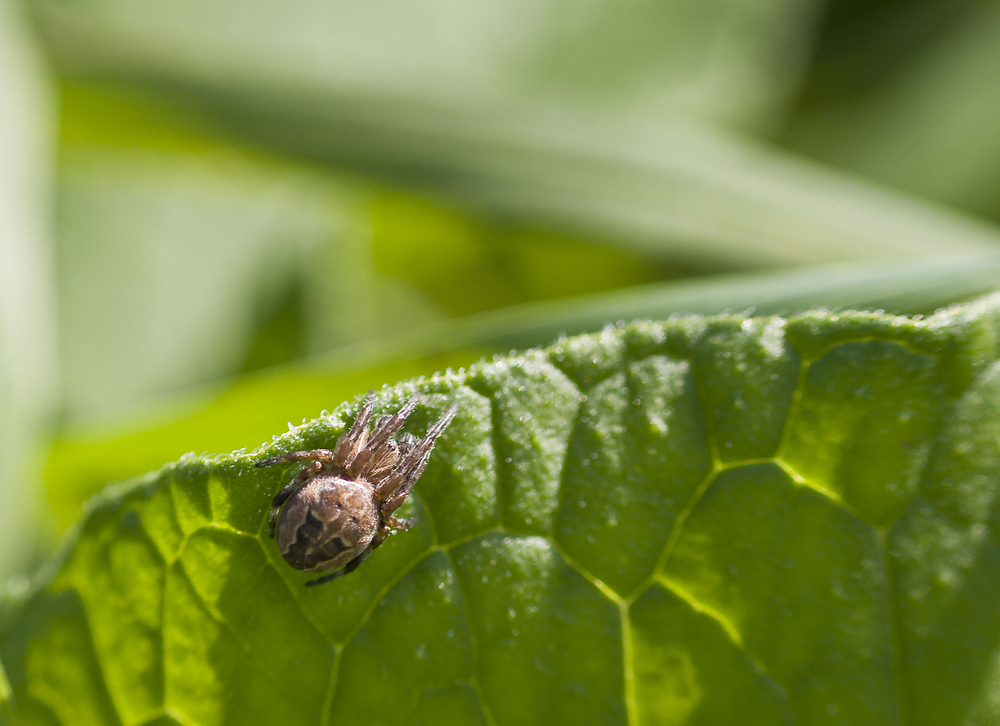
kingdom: Animalia
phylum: Arthropoda
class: Arachnida
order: Araneae
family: Araneidae
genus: Larinioides
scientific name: Larinioides cornutus
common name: Furrow orbweaver
